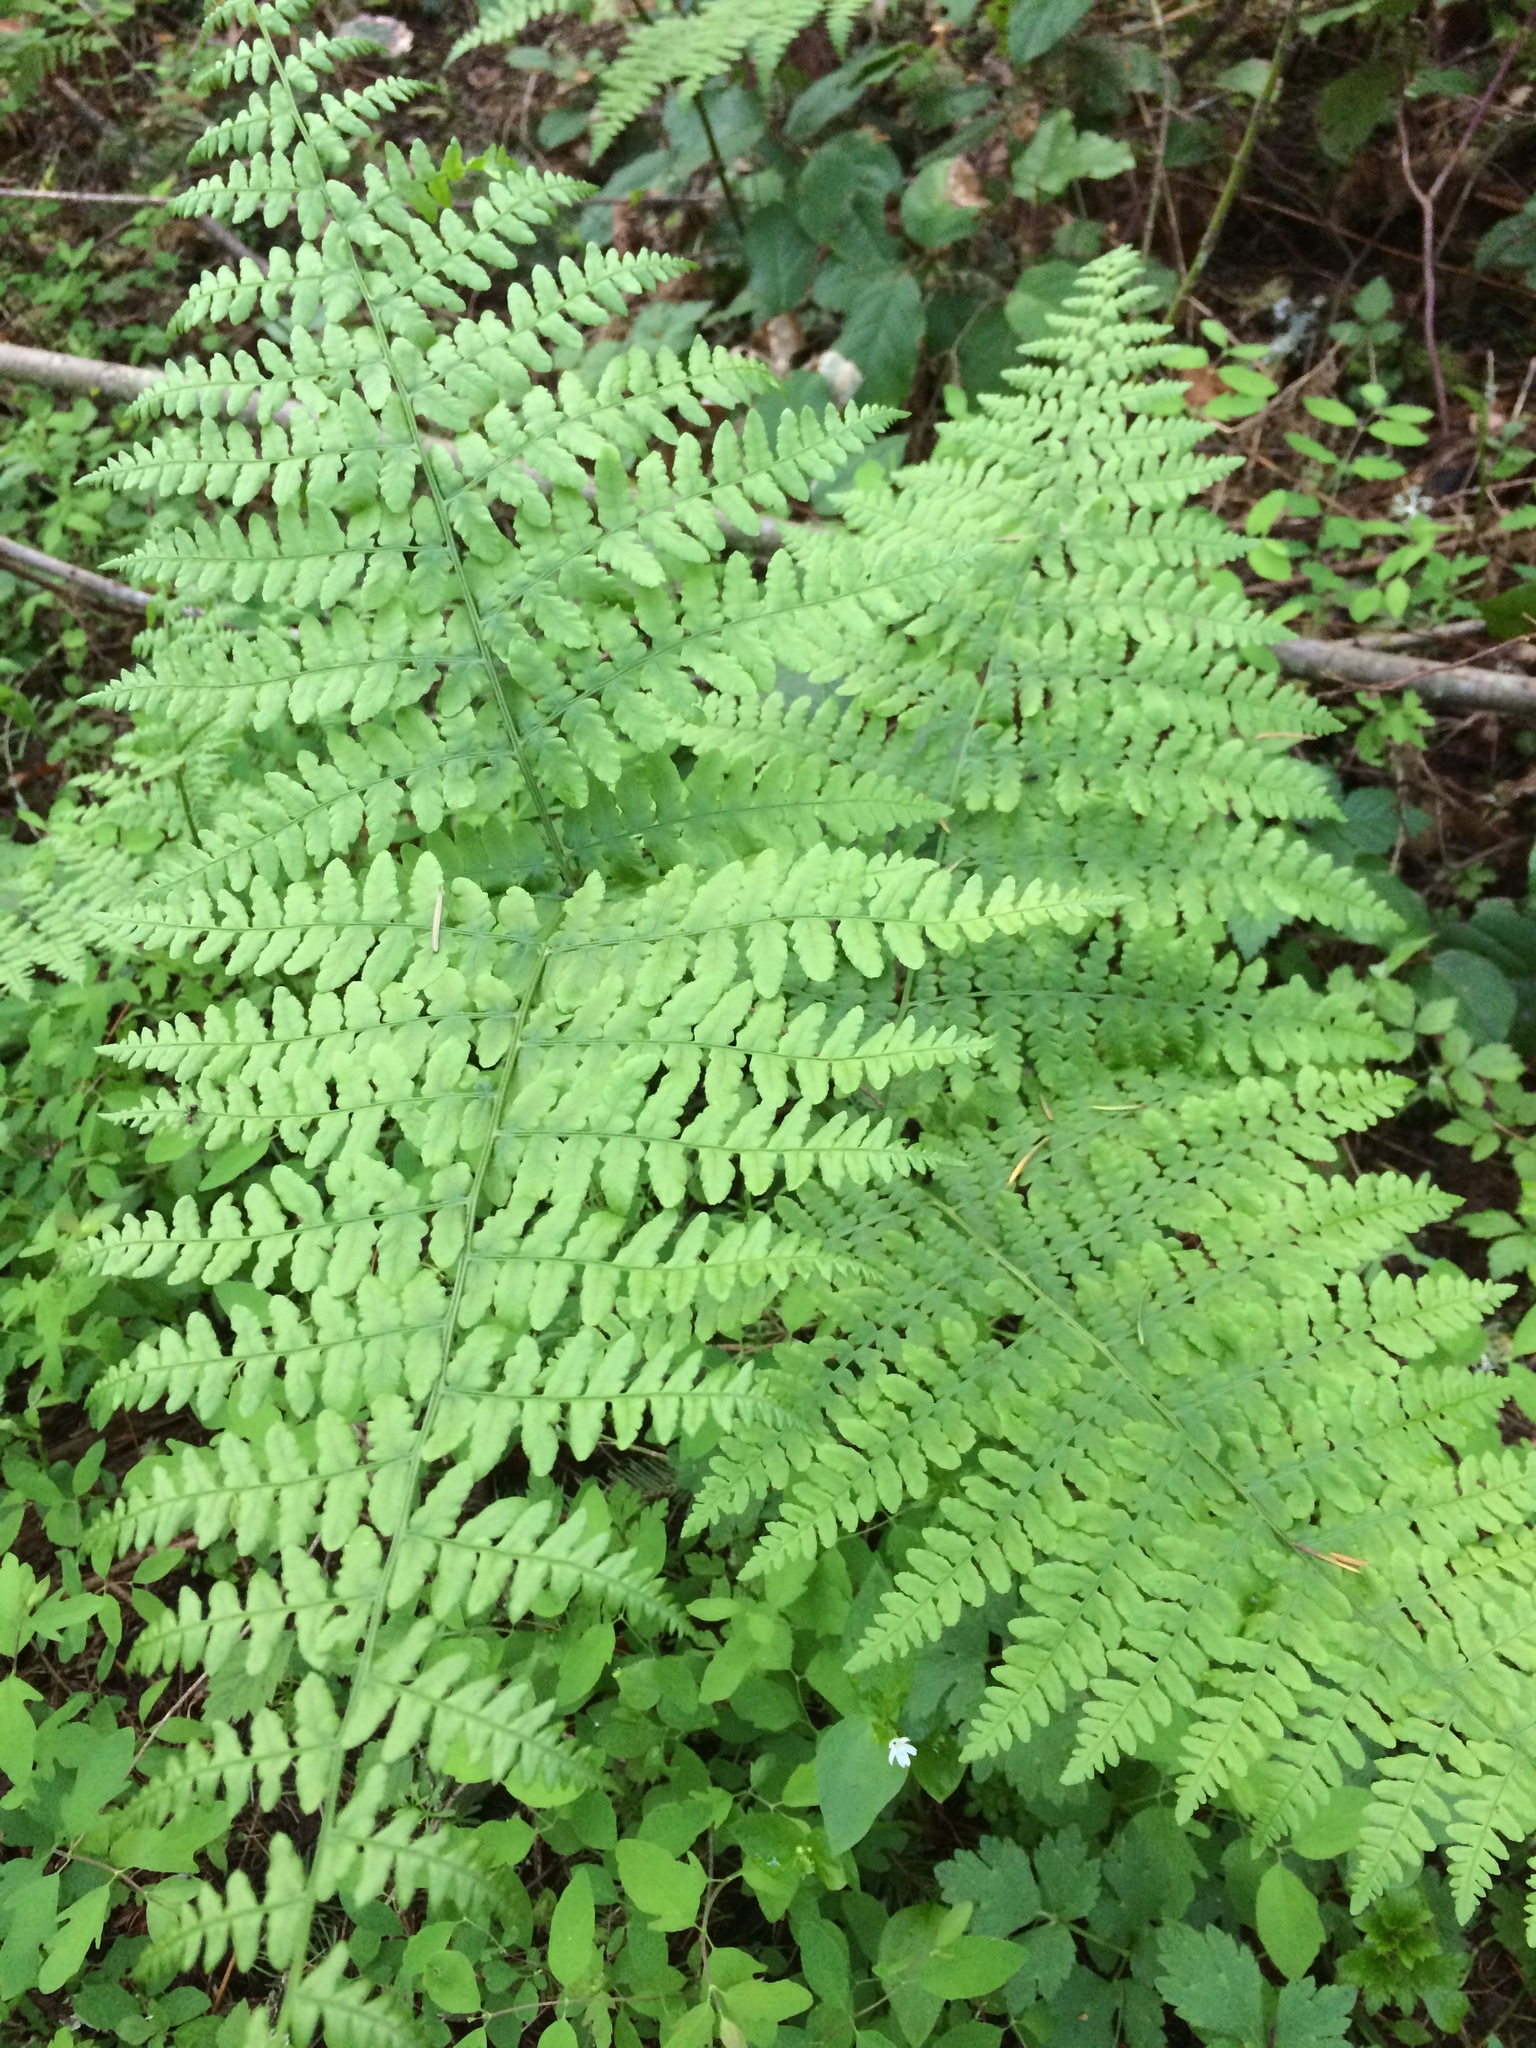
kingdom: Plantae
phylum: Tracheophyta
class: Polypodiopsida
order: Polypodiales
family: Dennstaedtiaceae
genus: Pteridium
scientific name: Pteridium aquilinum
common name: Bracken
